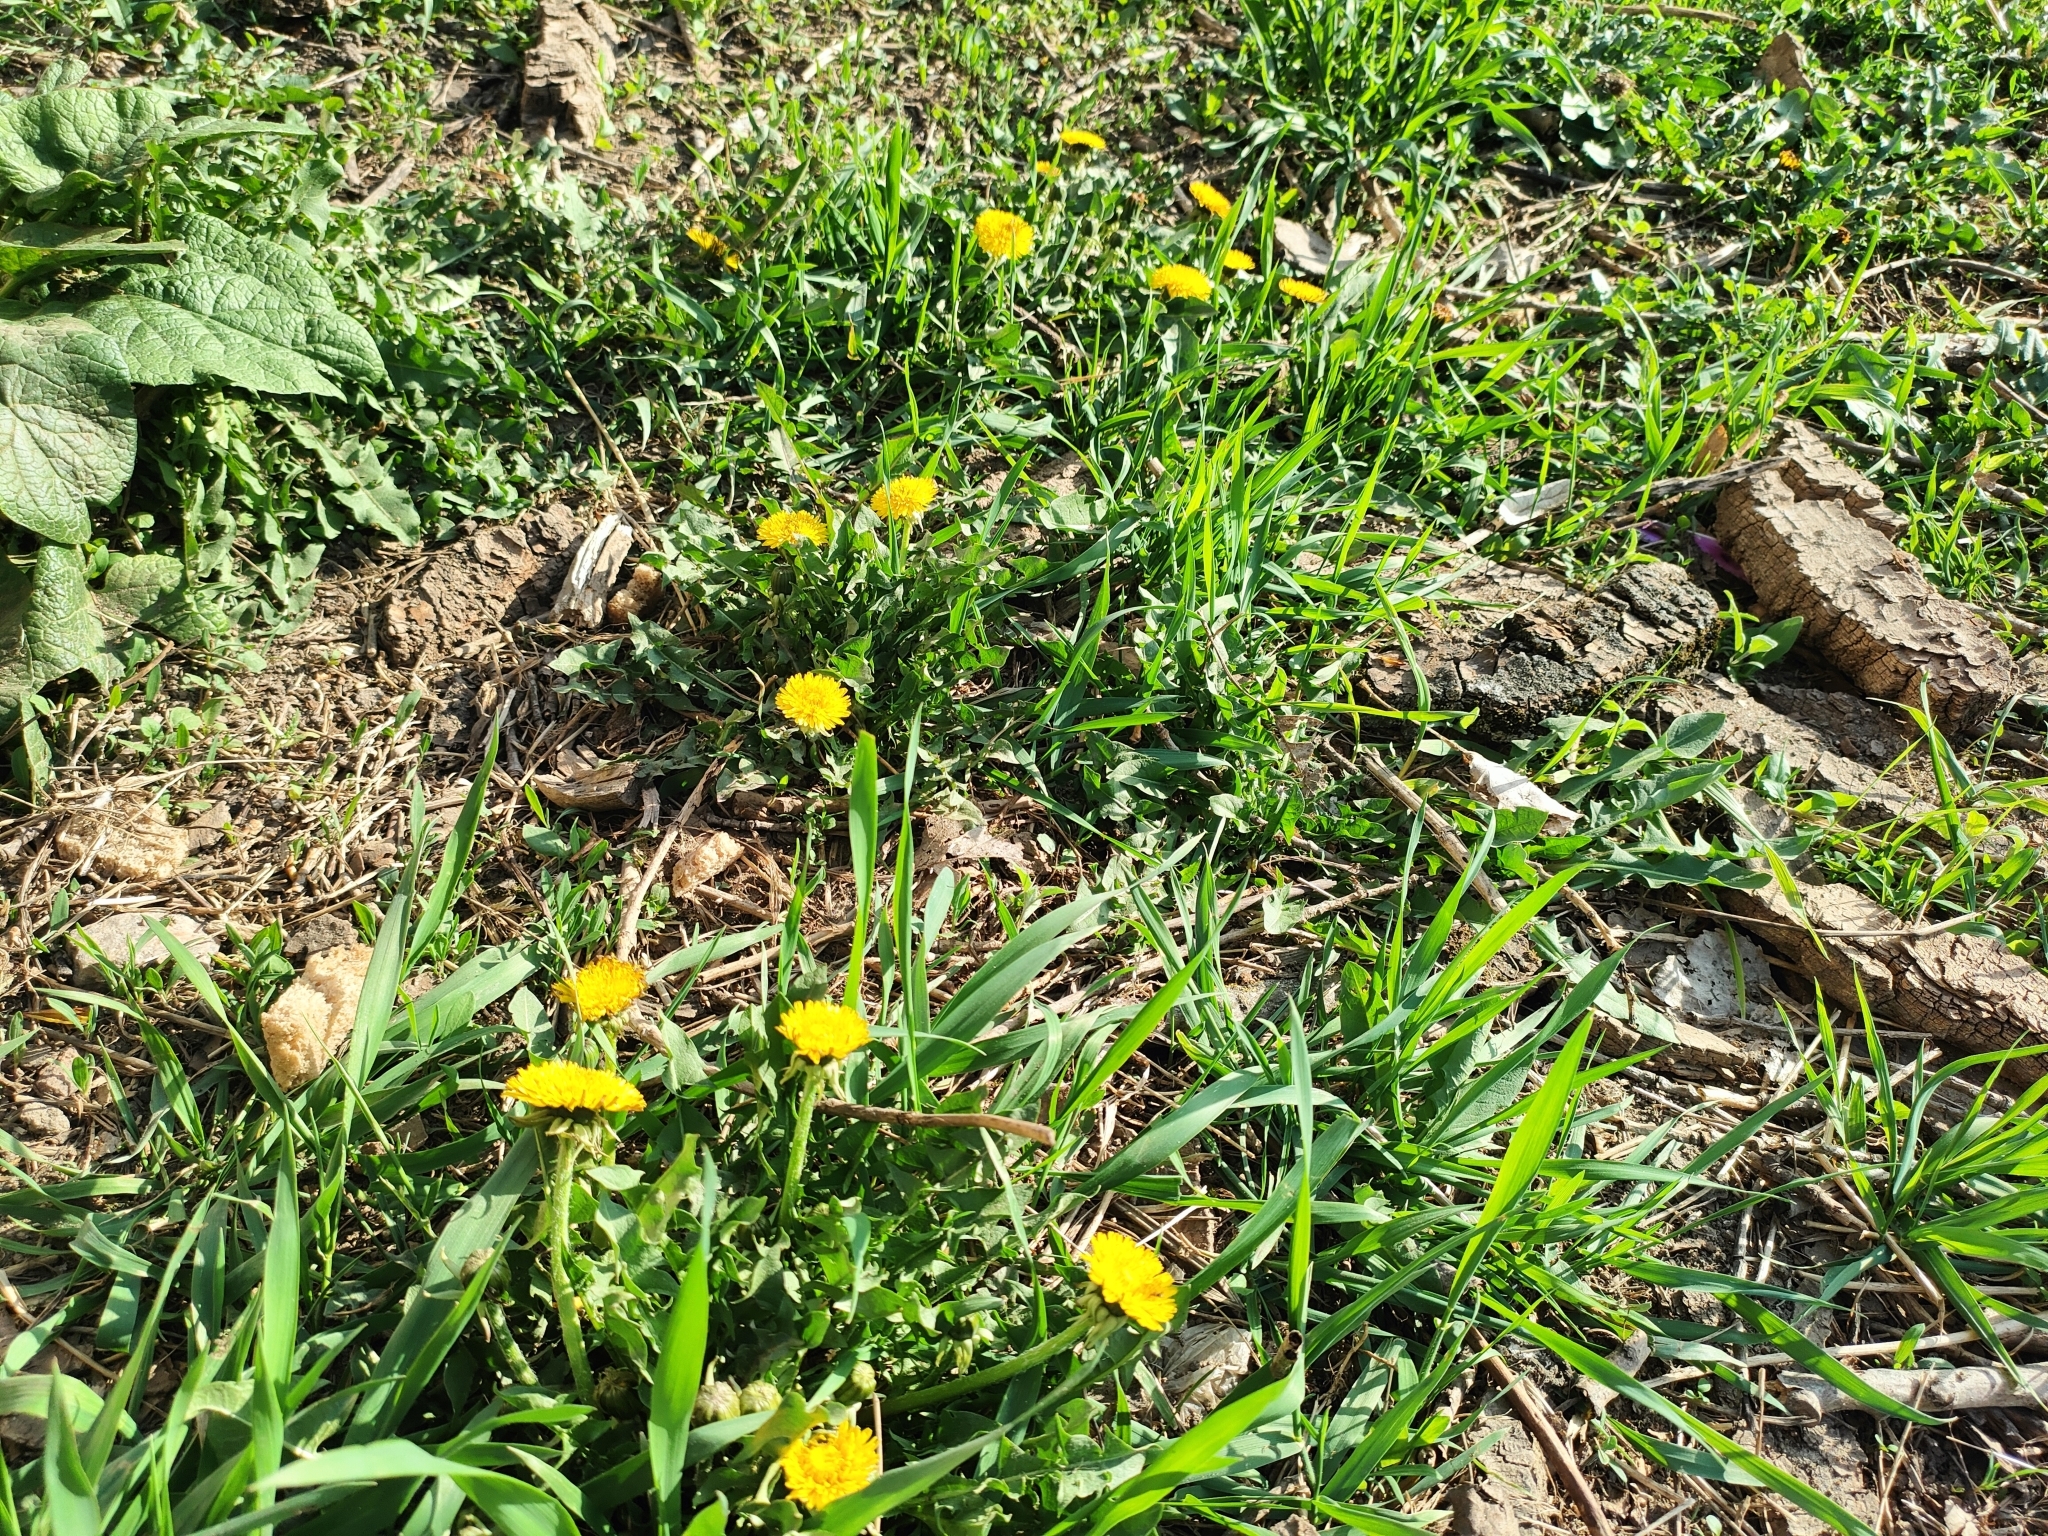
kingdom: Plantae
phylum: Tracheophyta
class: Magnoliopsida
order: Asterales
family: Asteraceae
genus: Taraxacum
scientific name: Taraxacum officinale
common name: Common dandelion
